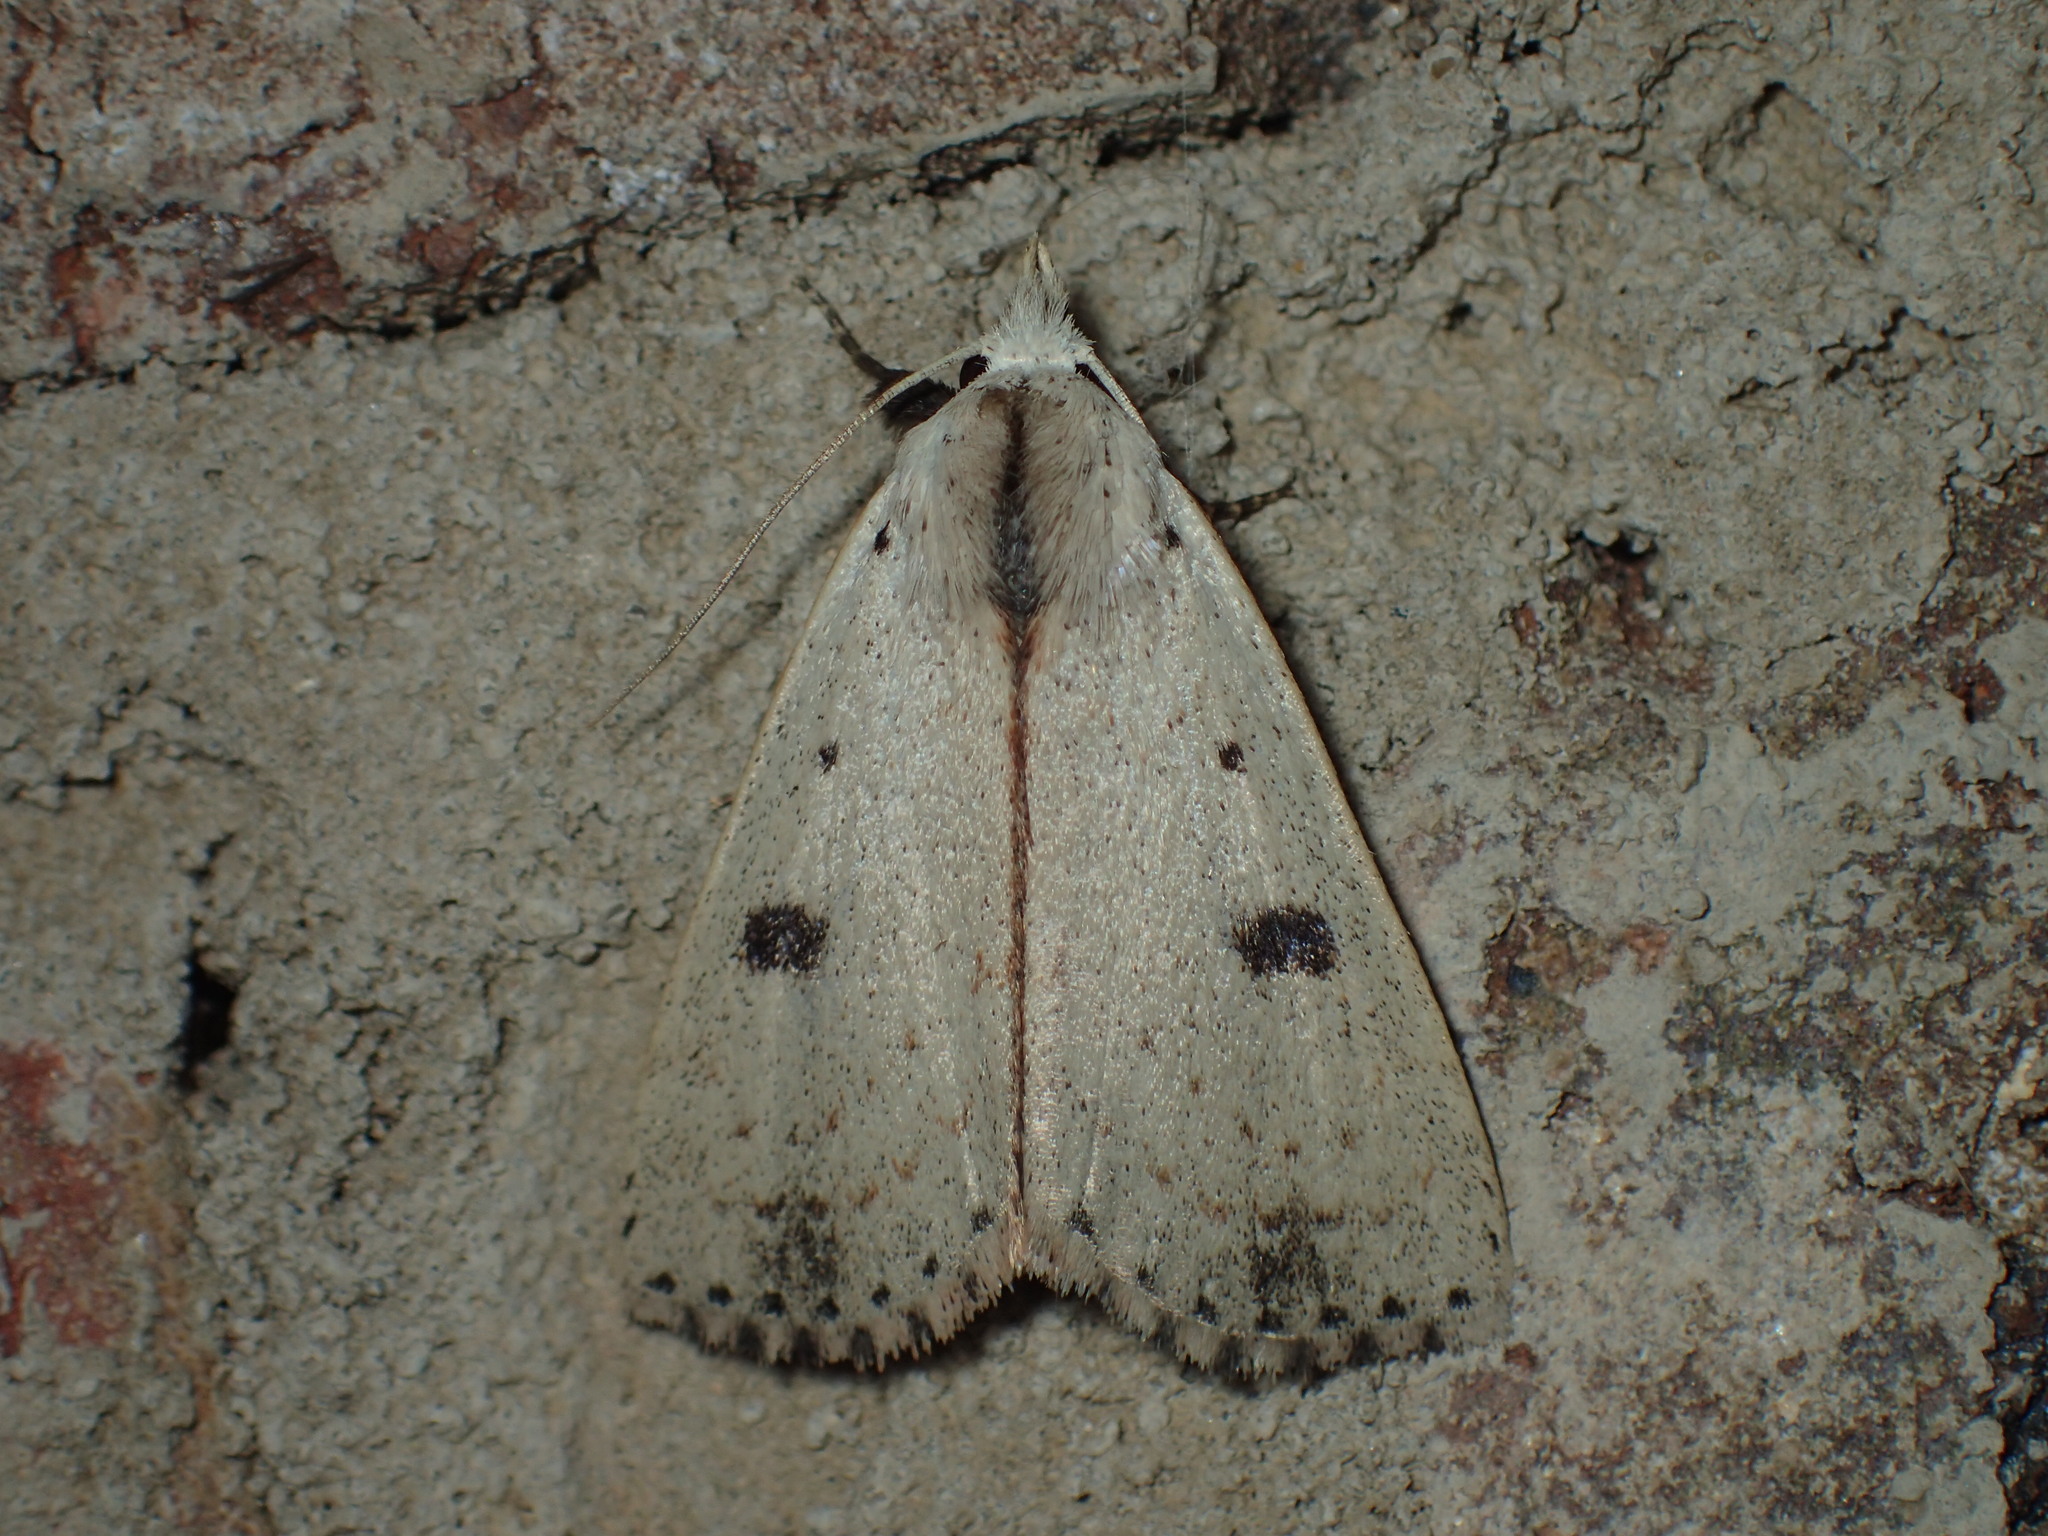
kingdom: Animalia
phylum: Arthropoda
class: Insecta
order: Lepidoptera
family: Erebidae
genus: Scolecocampa
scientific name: Scolecocampa liburna
